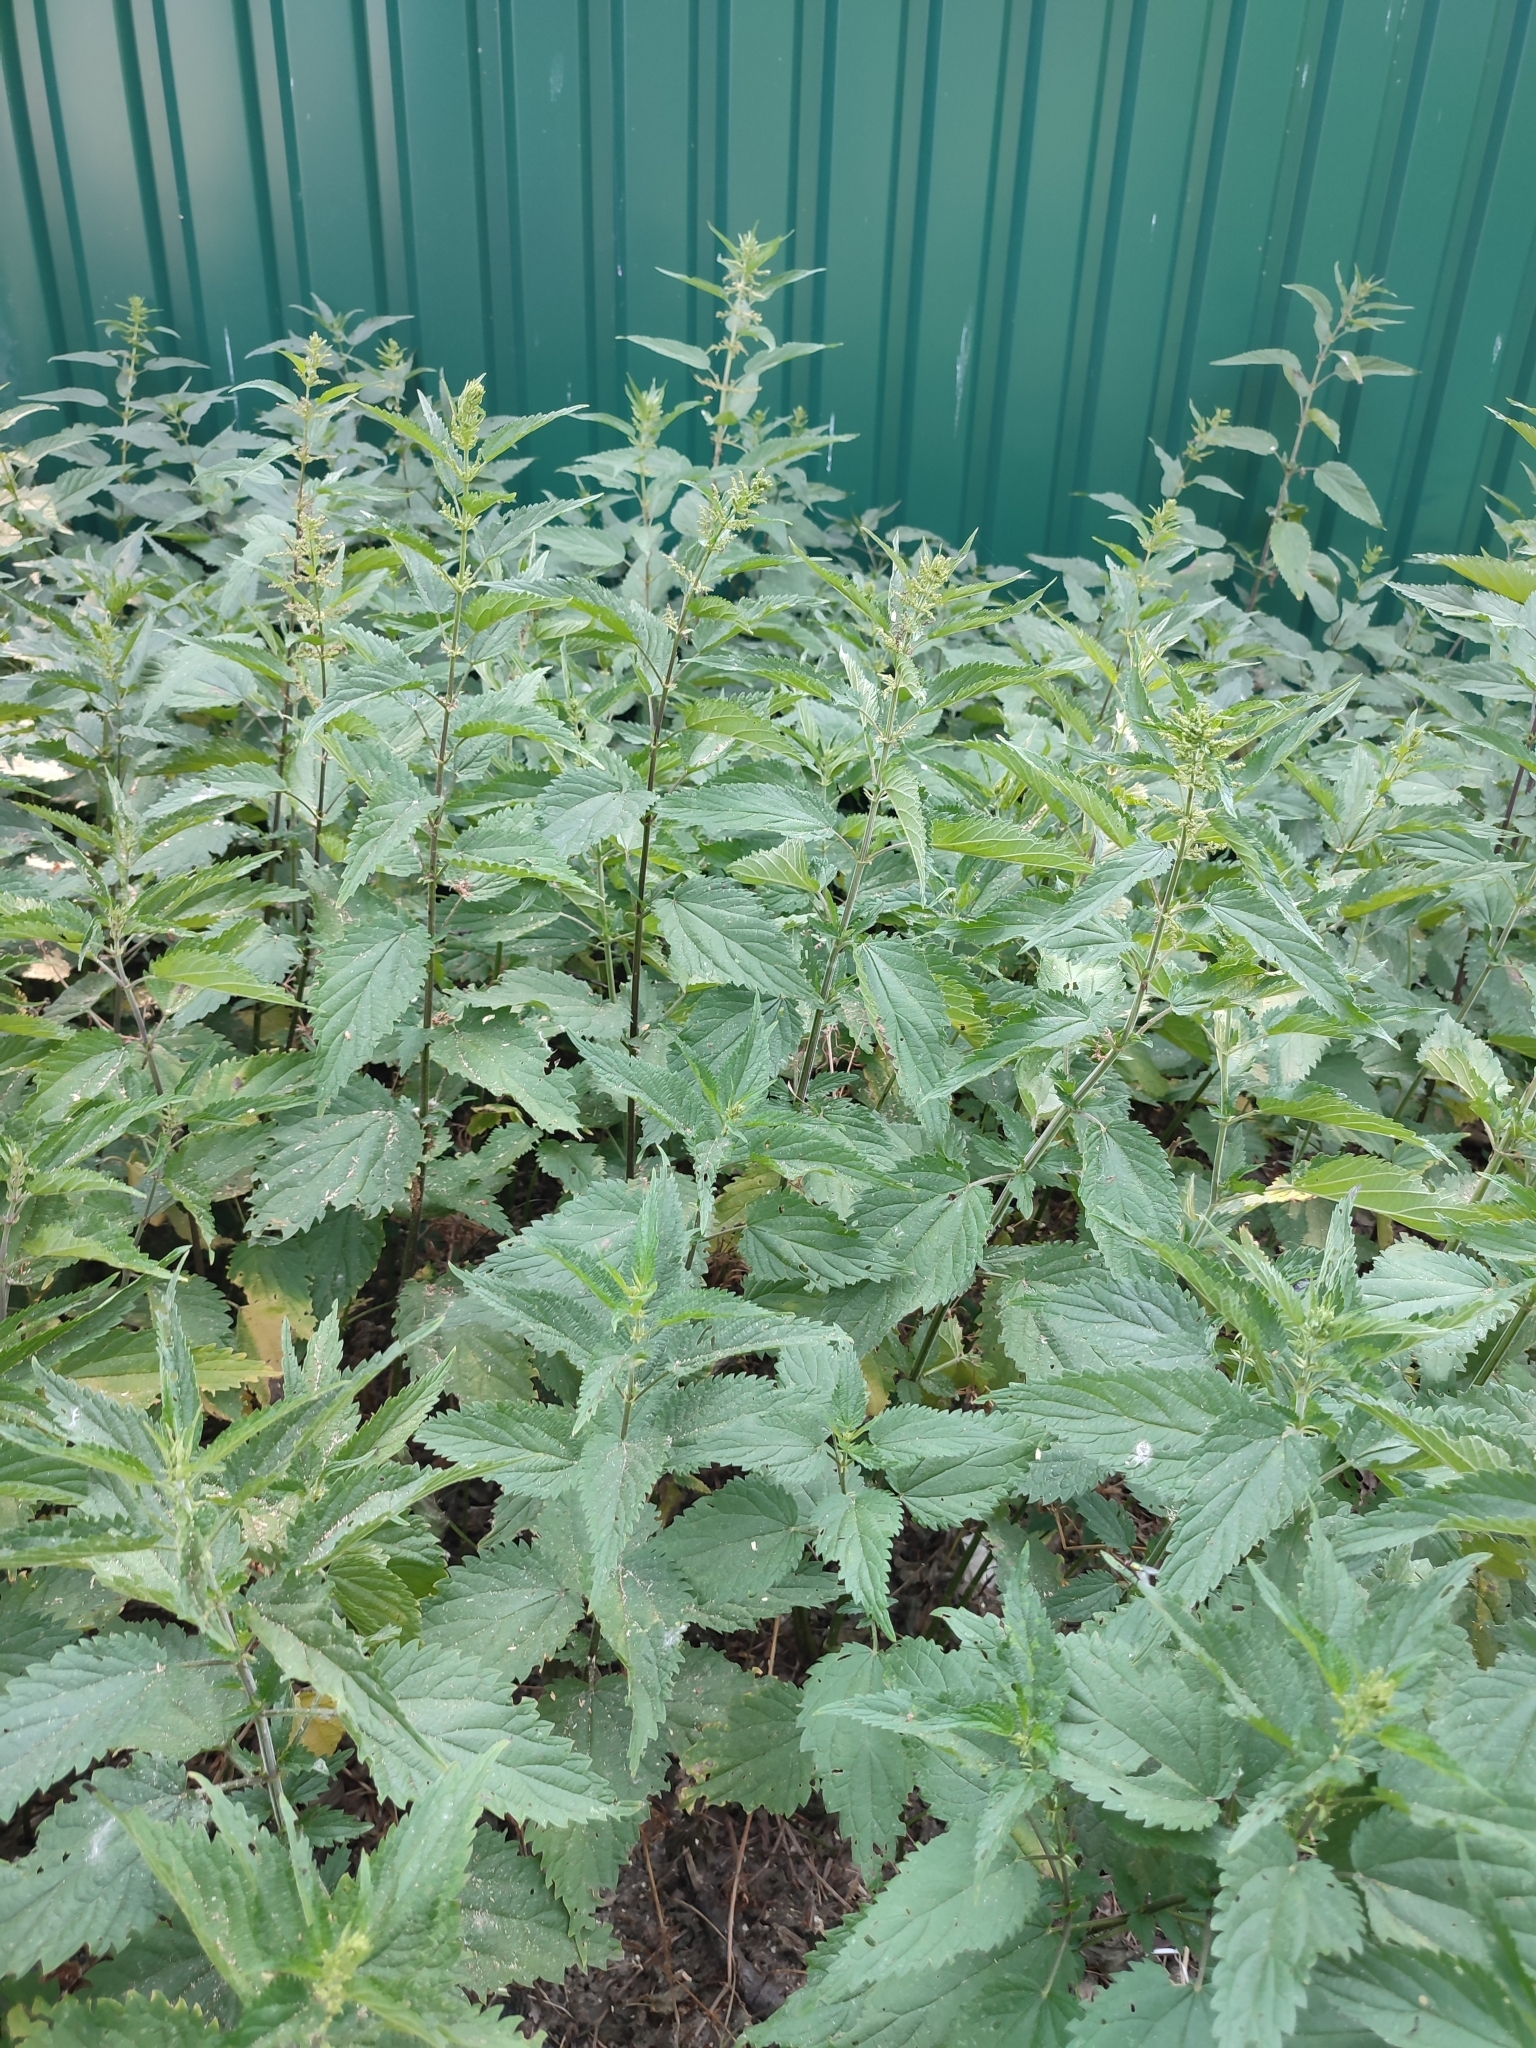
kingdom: Plantae
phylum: Tracheophyta
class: Magnoliopsida
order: Rosales
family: Urticaceae
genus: Urtica
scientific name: Urtica dioica
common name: Common nettle
